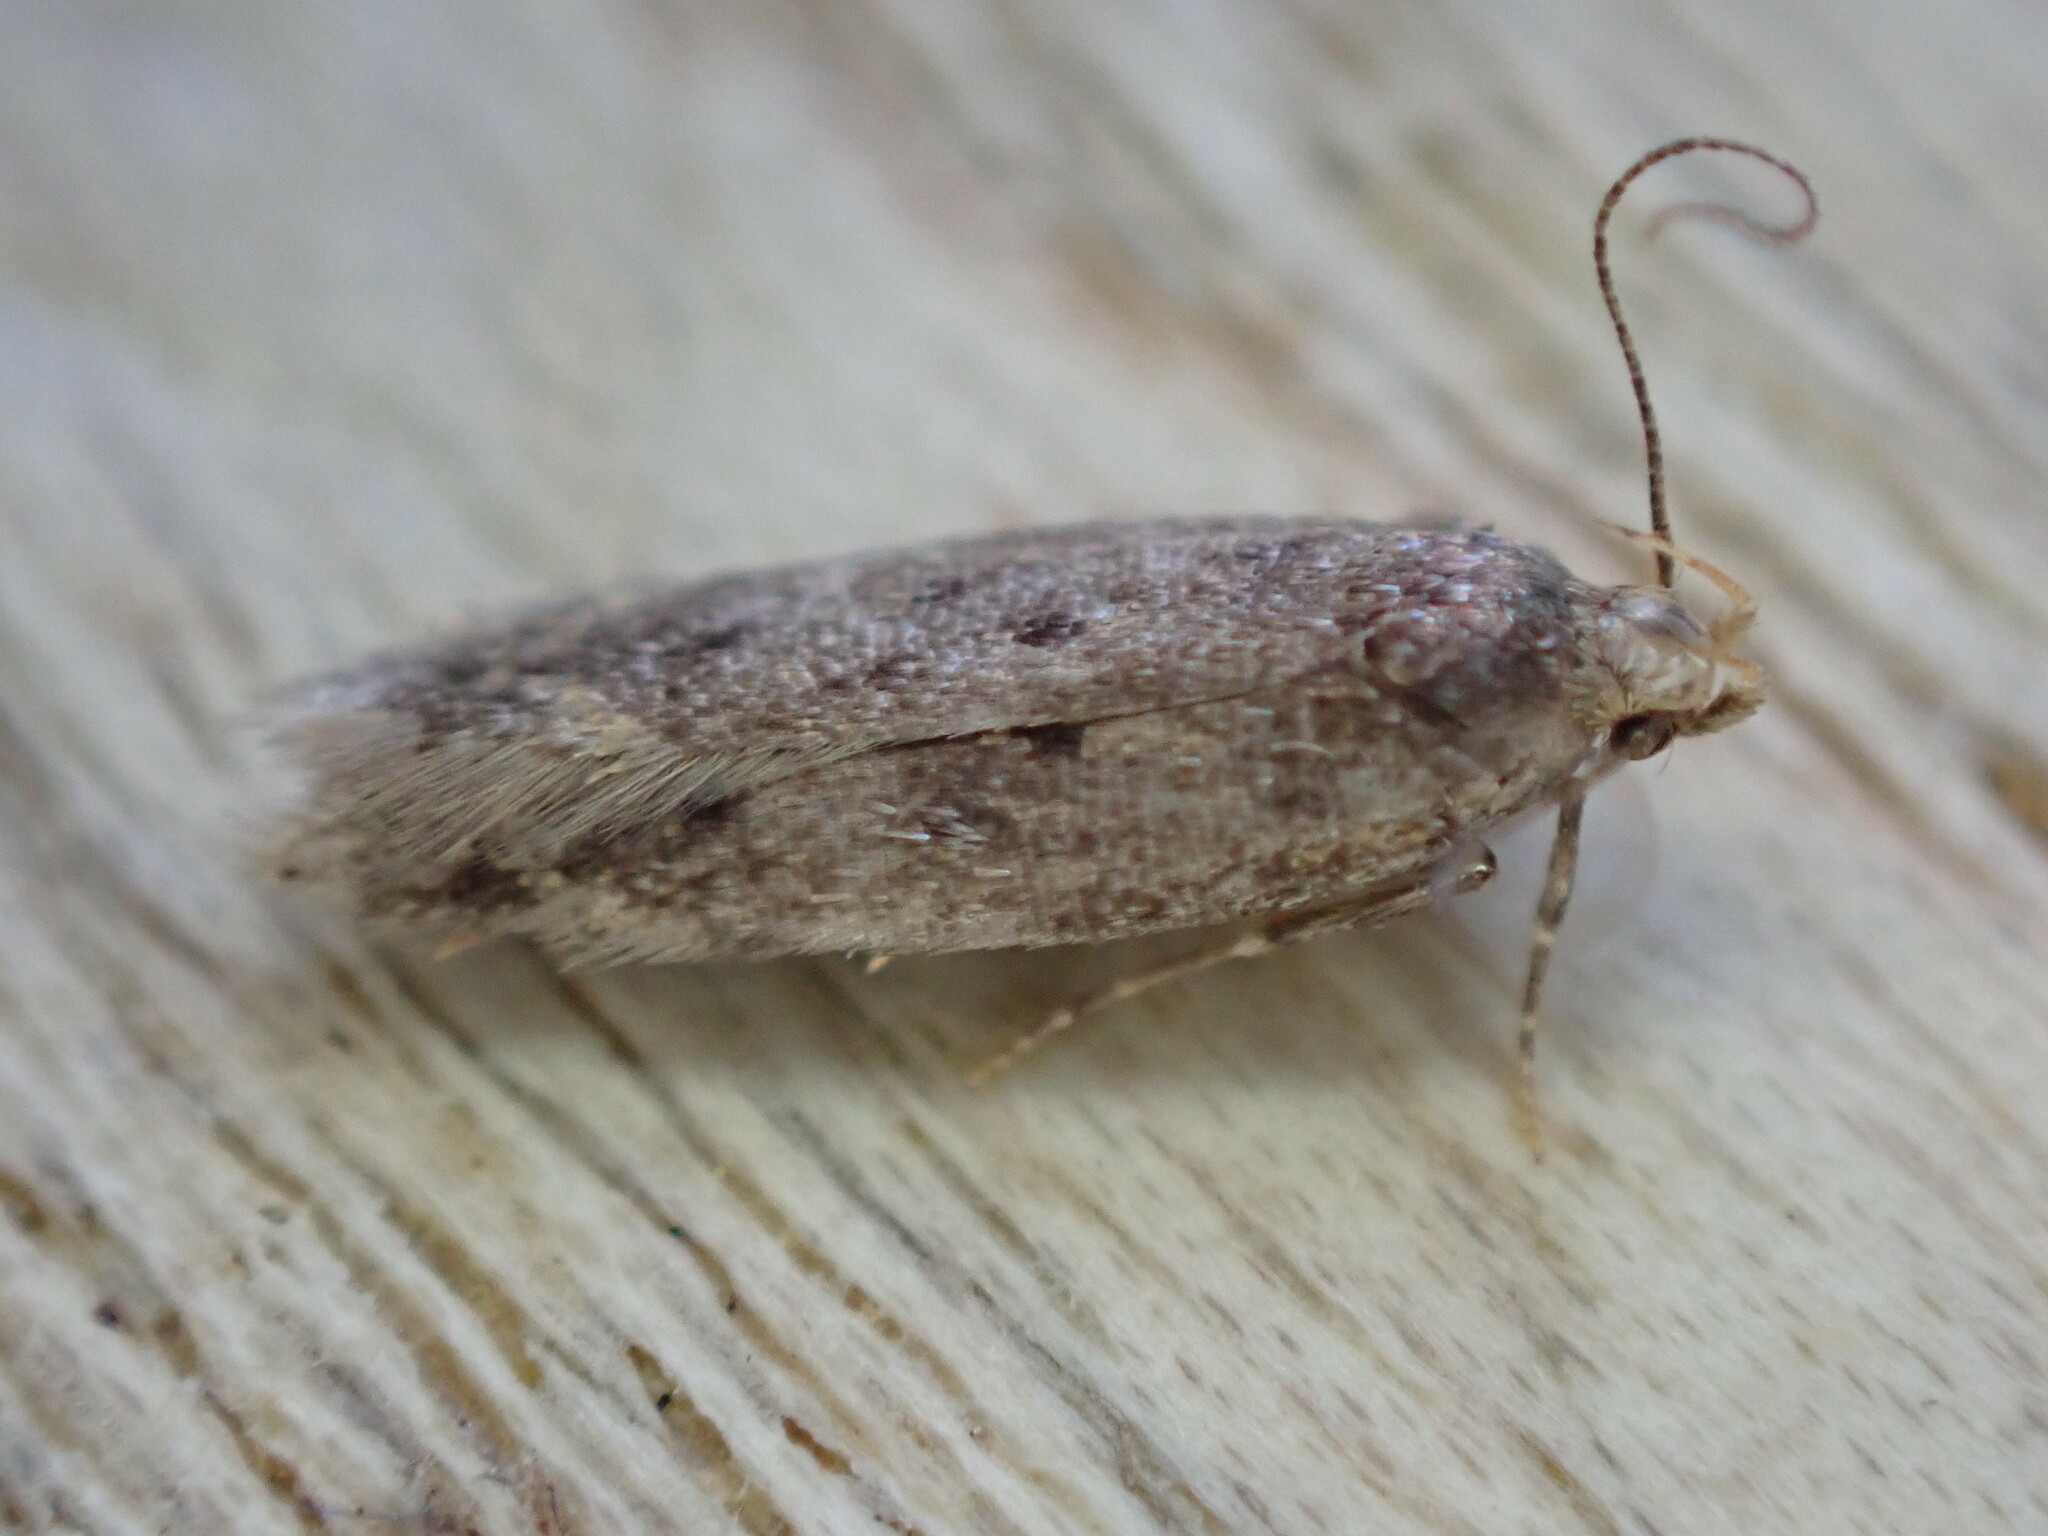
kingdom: Animalia
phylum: Arthropoda
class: Insecta
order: Lepidoptera
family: Oecophoridae
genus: Hofmannophila
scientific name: Hofmannophila pseudospretella
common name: Brown house moth
